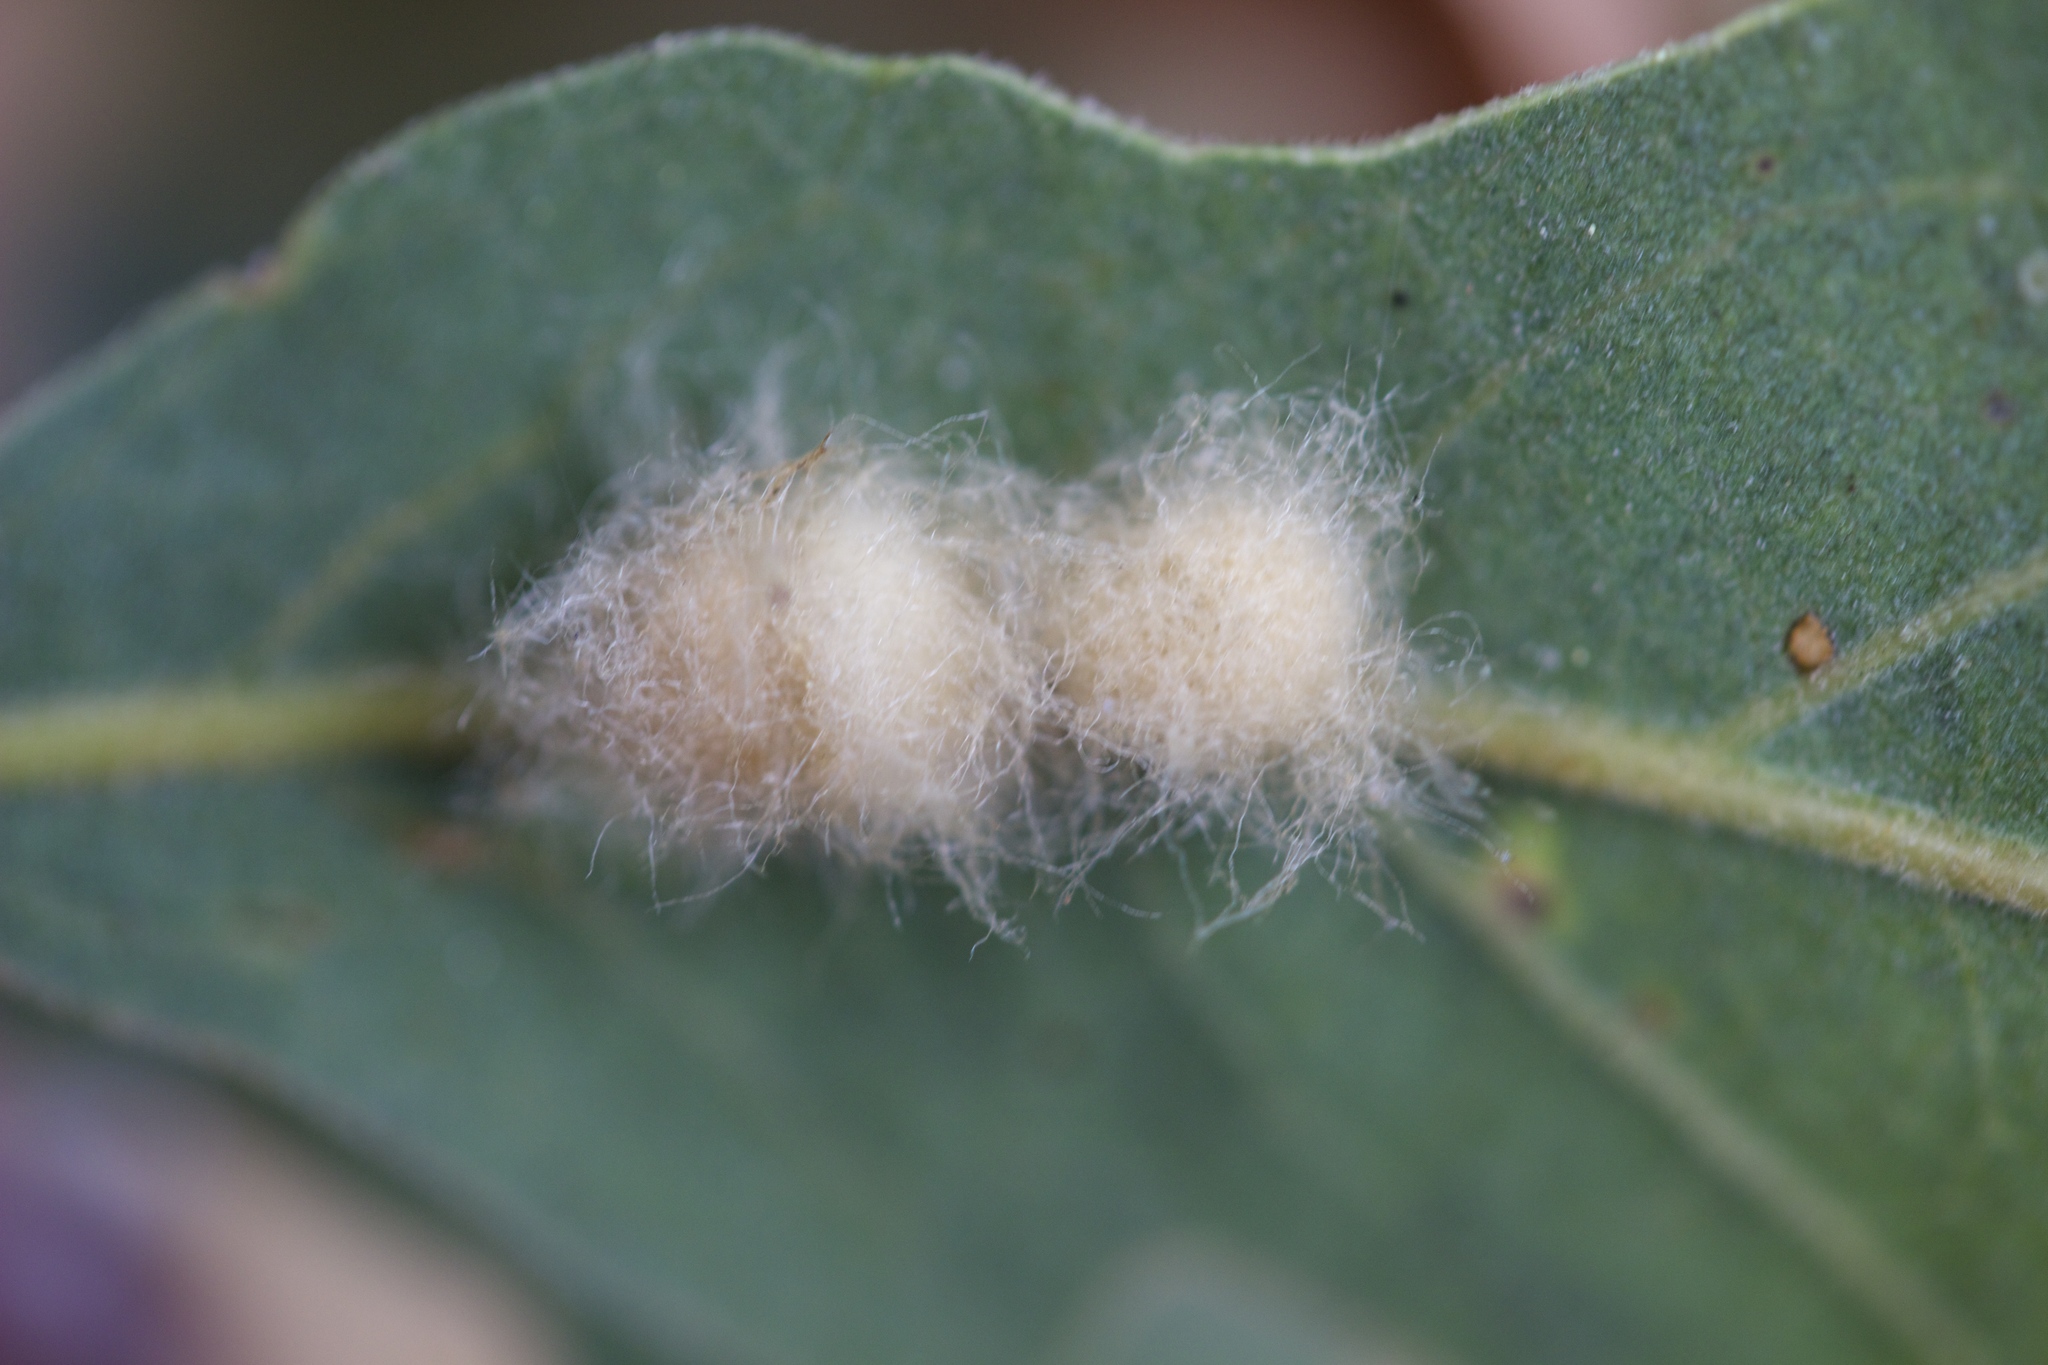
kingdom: Animalia
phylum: Arthropoda
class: Insecta
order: Hymenoptera
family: Cynipidae
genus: Andricus
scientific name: Andricus Druon fullawayi
